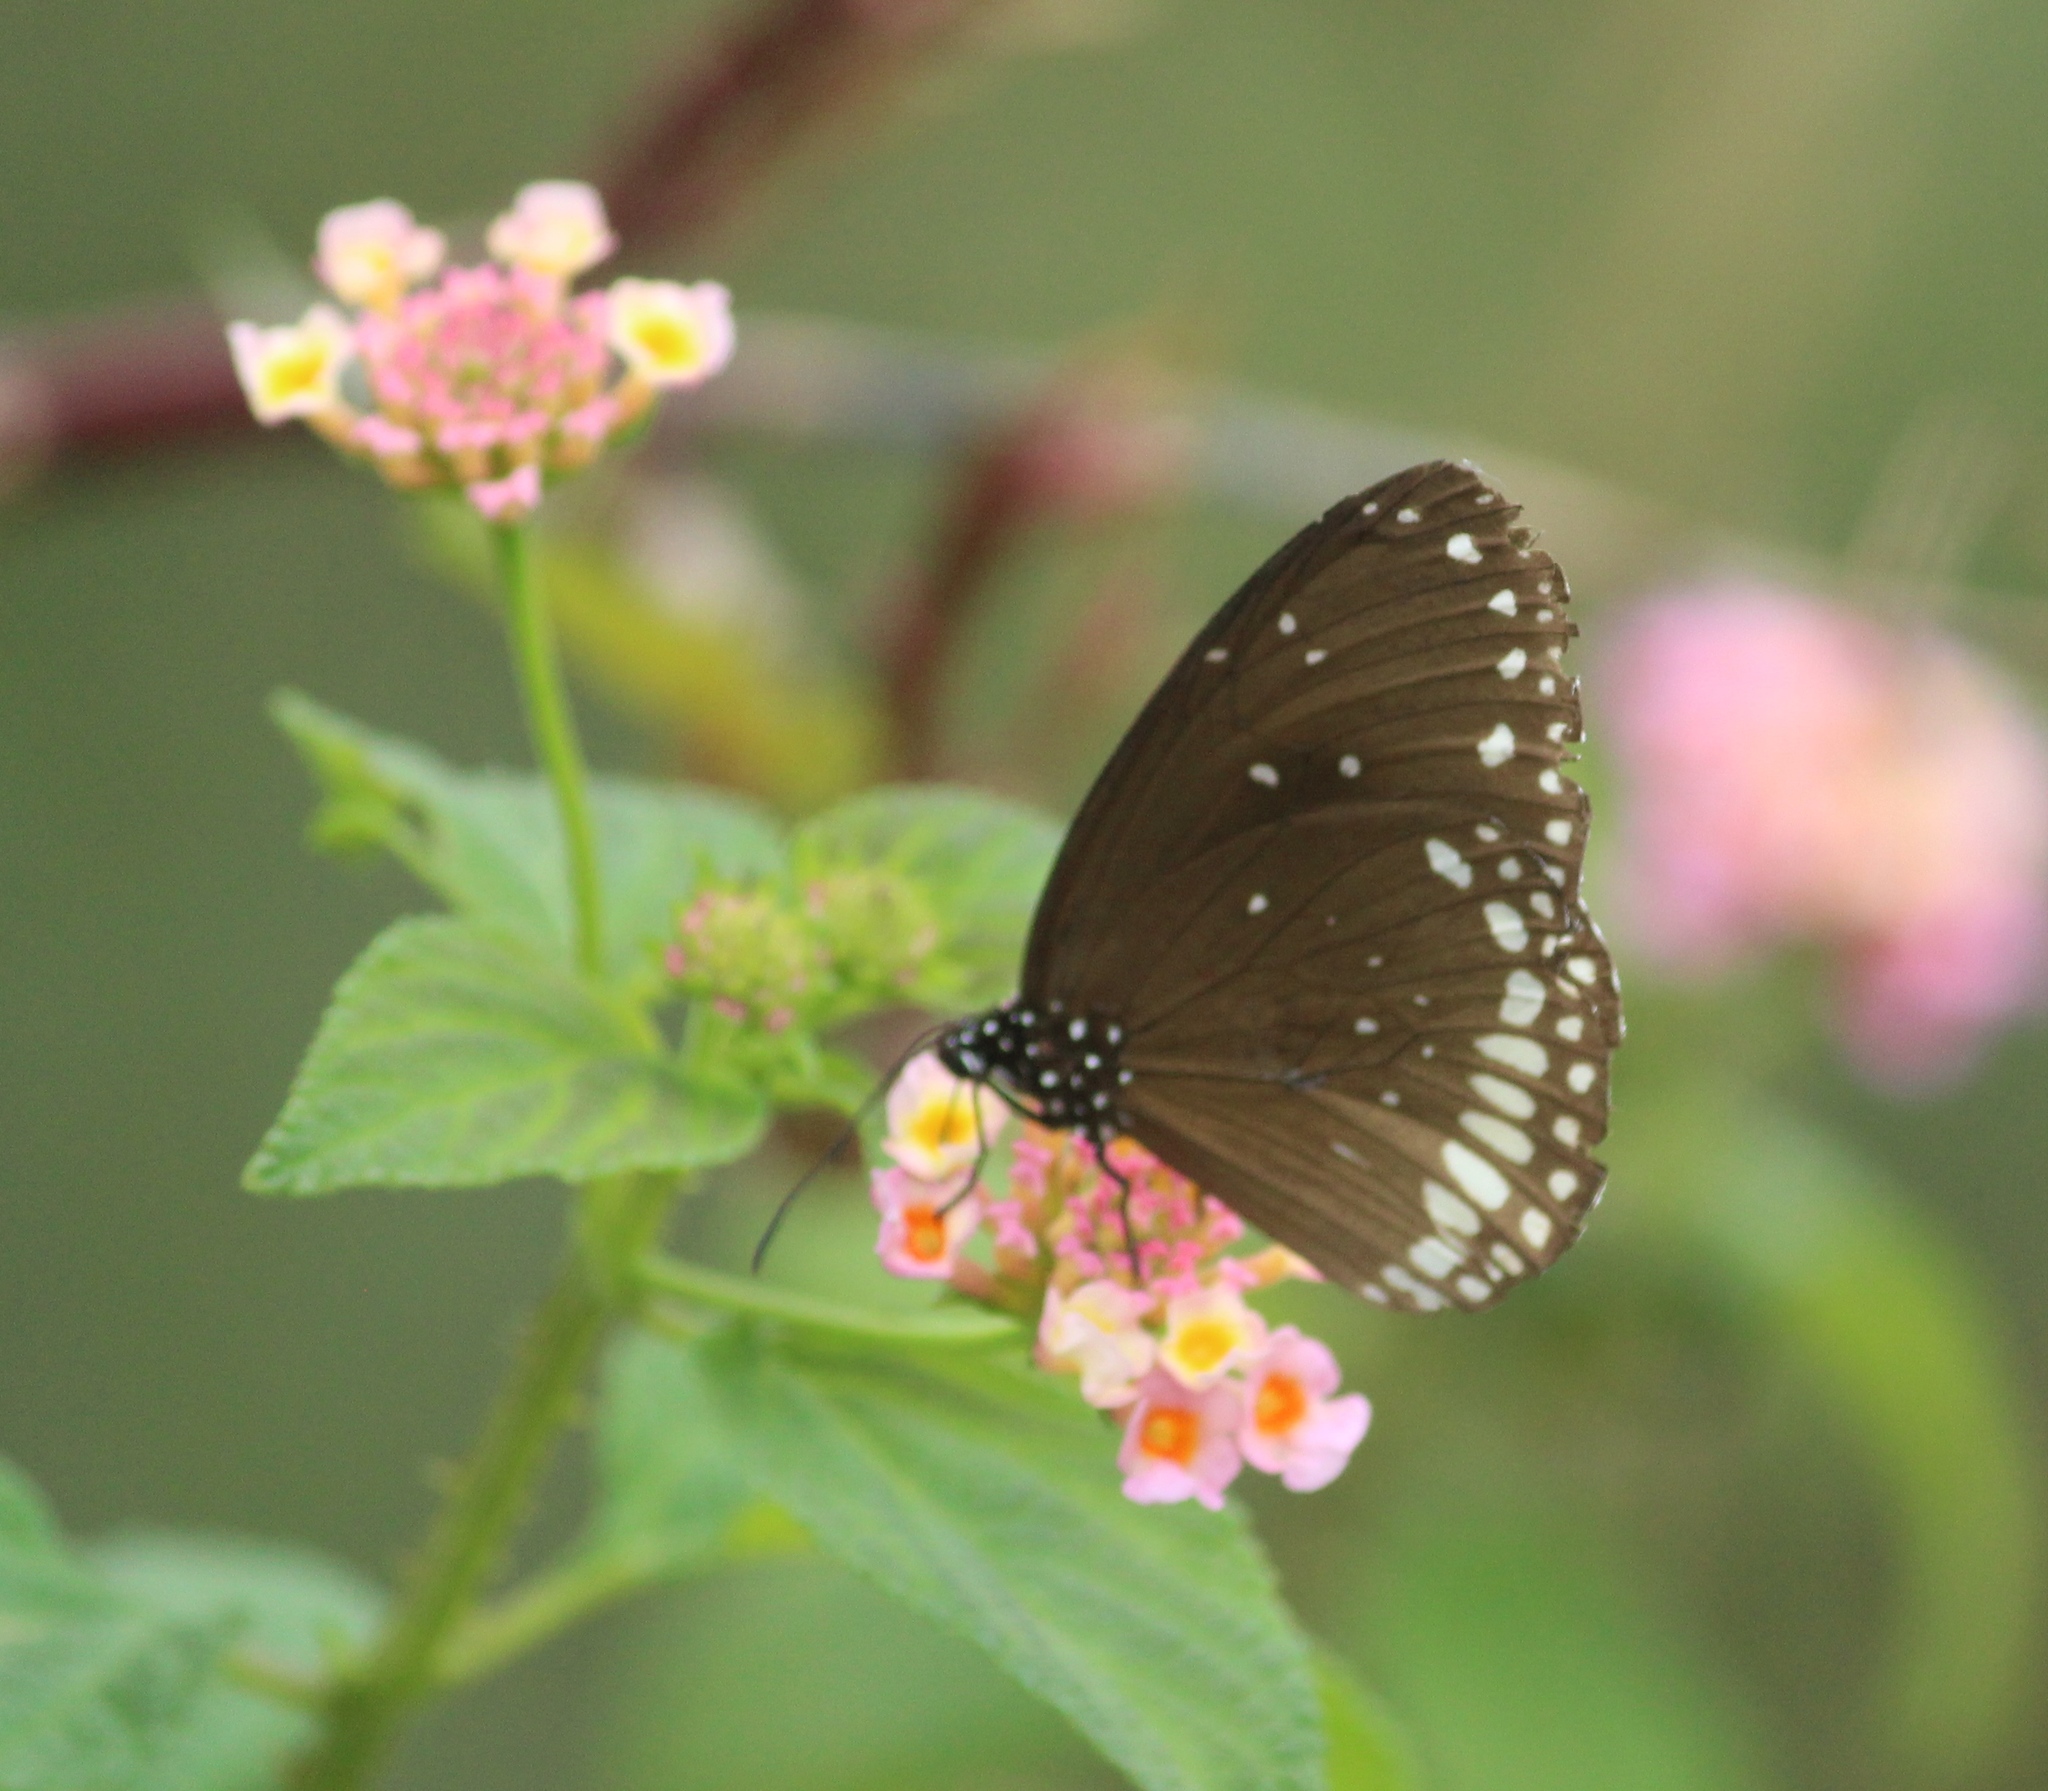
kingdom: Animalia
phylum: Arthropoda
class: Insecta
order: Lepidoptera
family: Nymphalidae
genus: Euploea
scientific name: Euploea sylvester
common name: Double-branded crow butterfly
